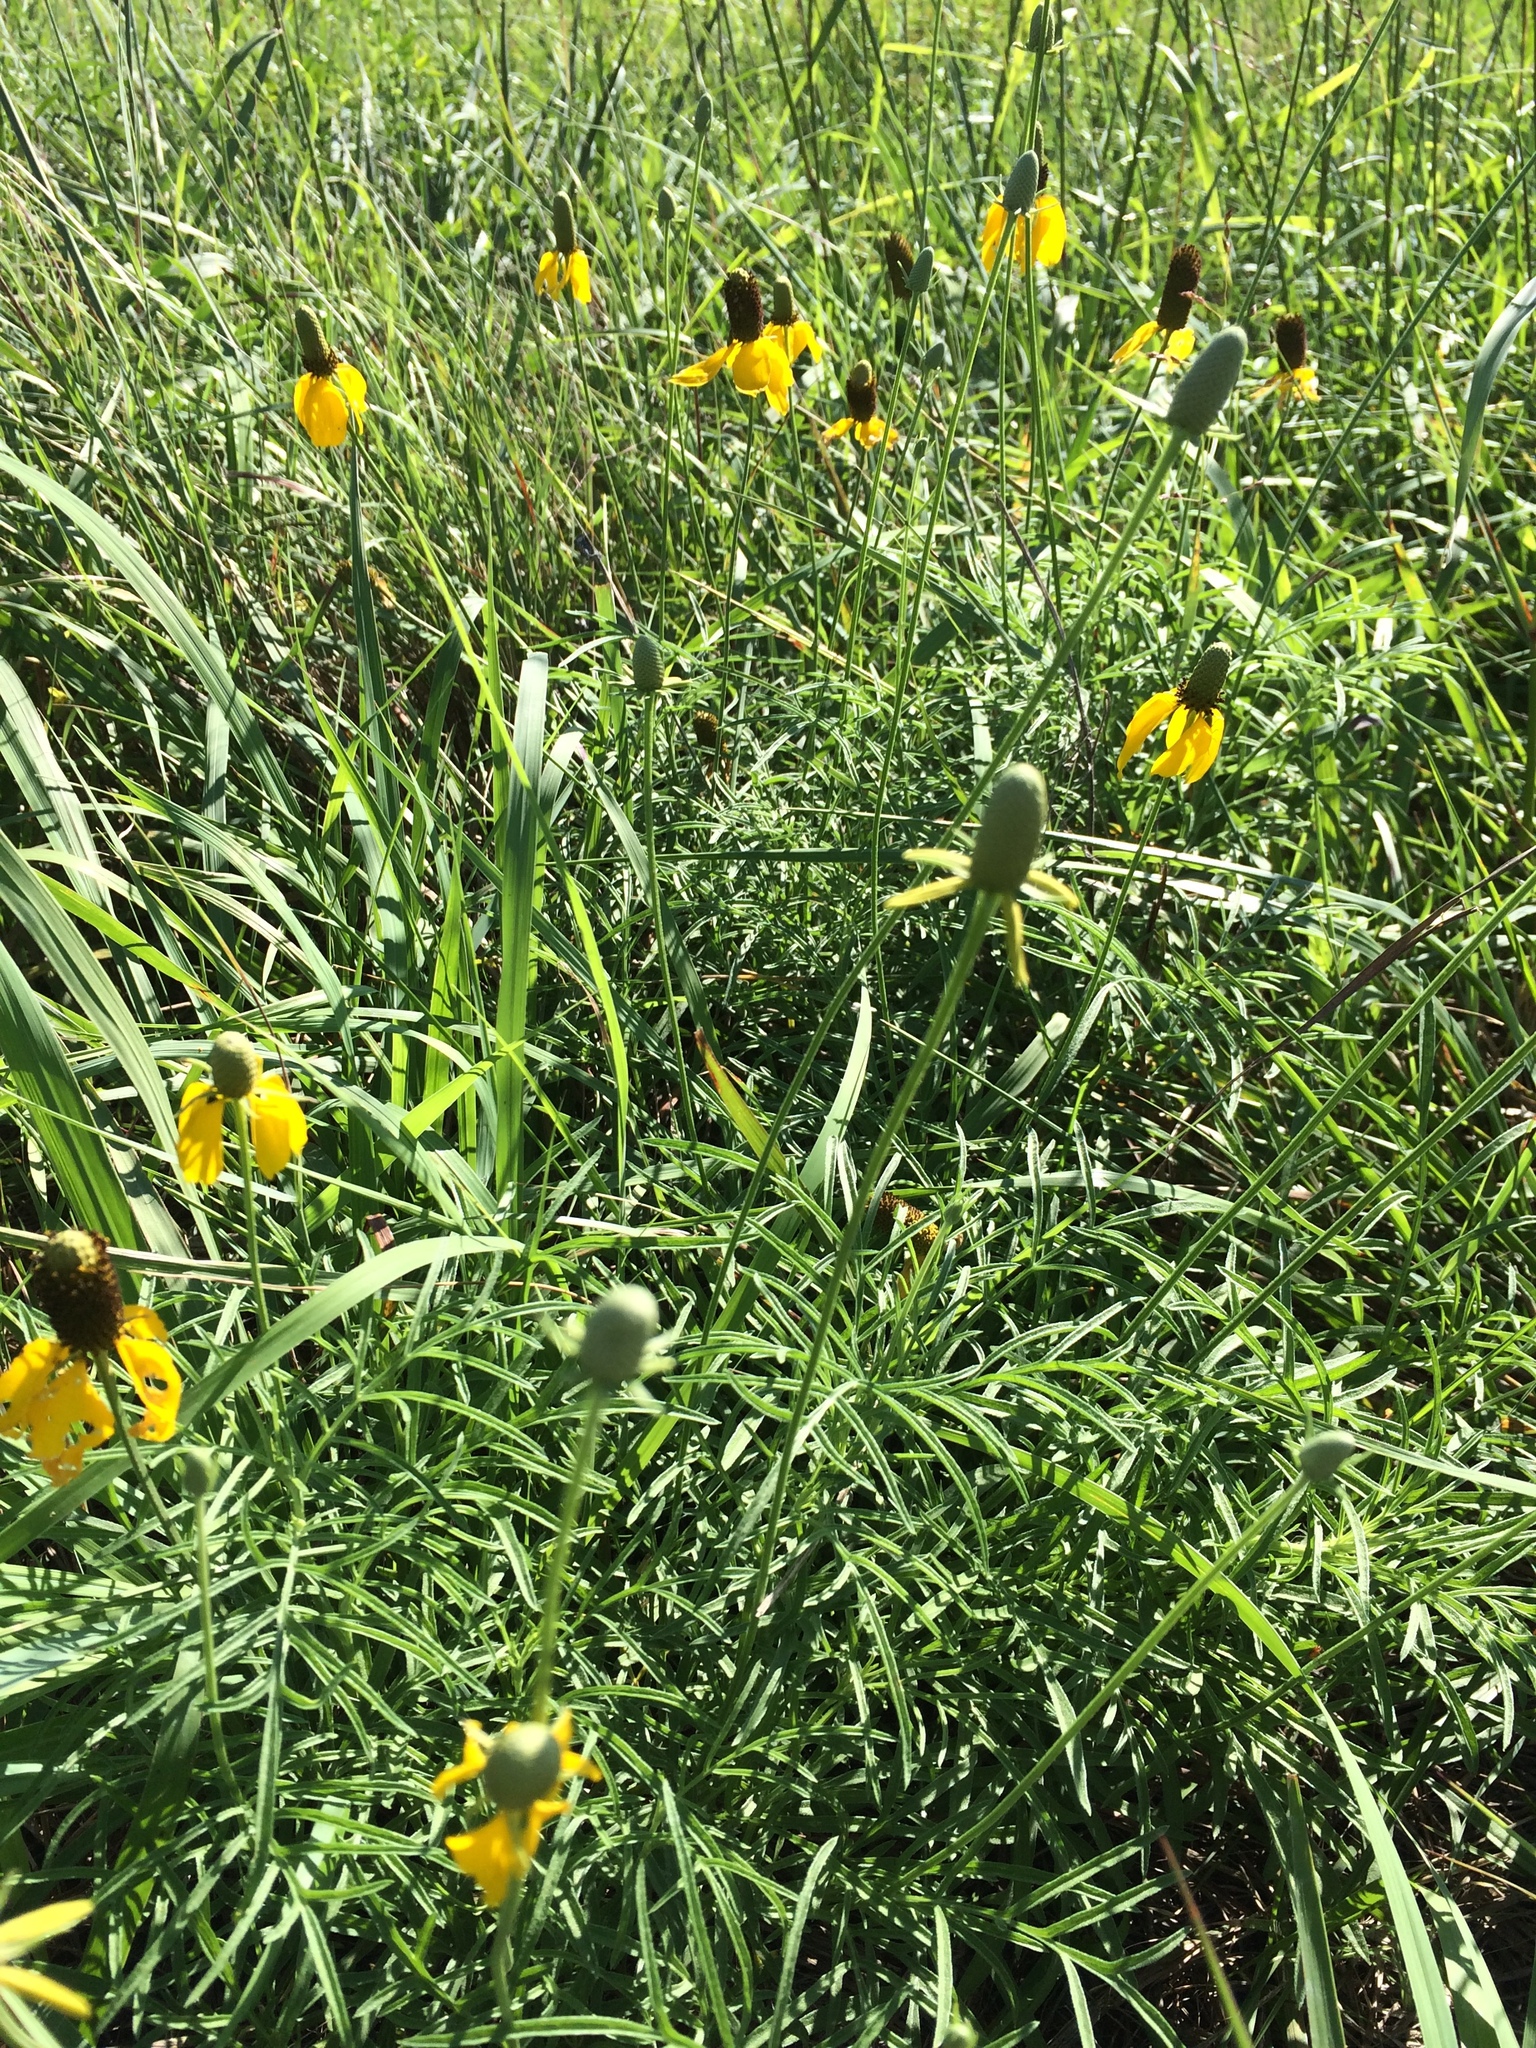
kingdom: Plantae
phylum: Tracheophyta
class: Magnoliopsida
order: Asterales
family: Asteraceae
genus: Ratibida
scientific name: Ratibida columnifera
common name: Prairie coneflower
